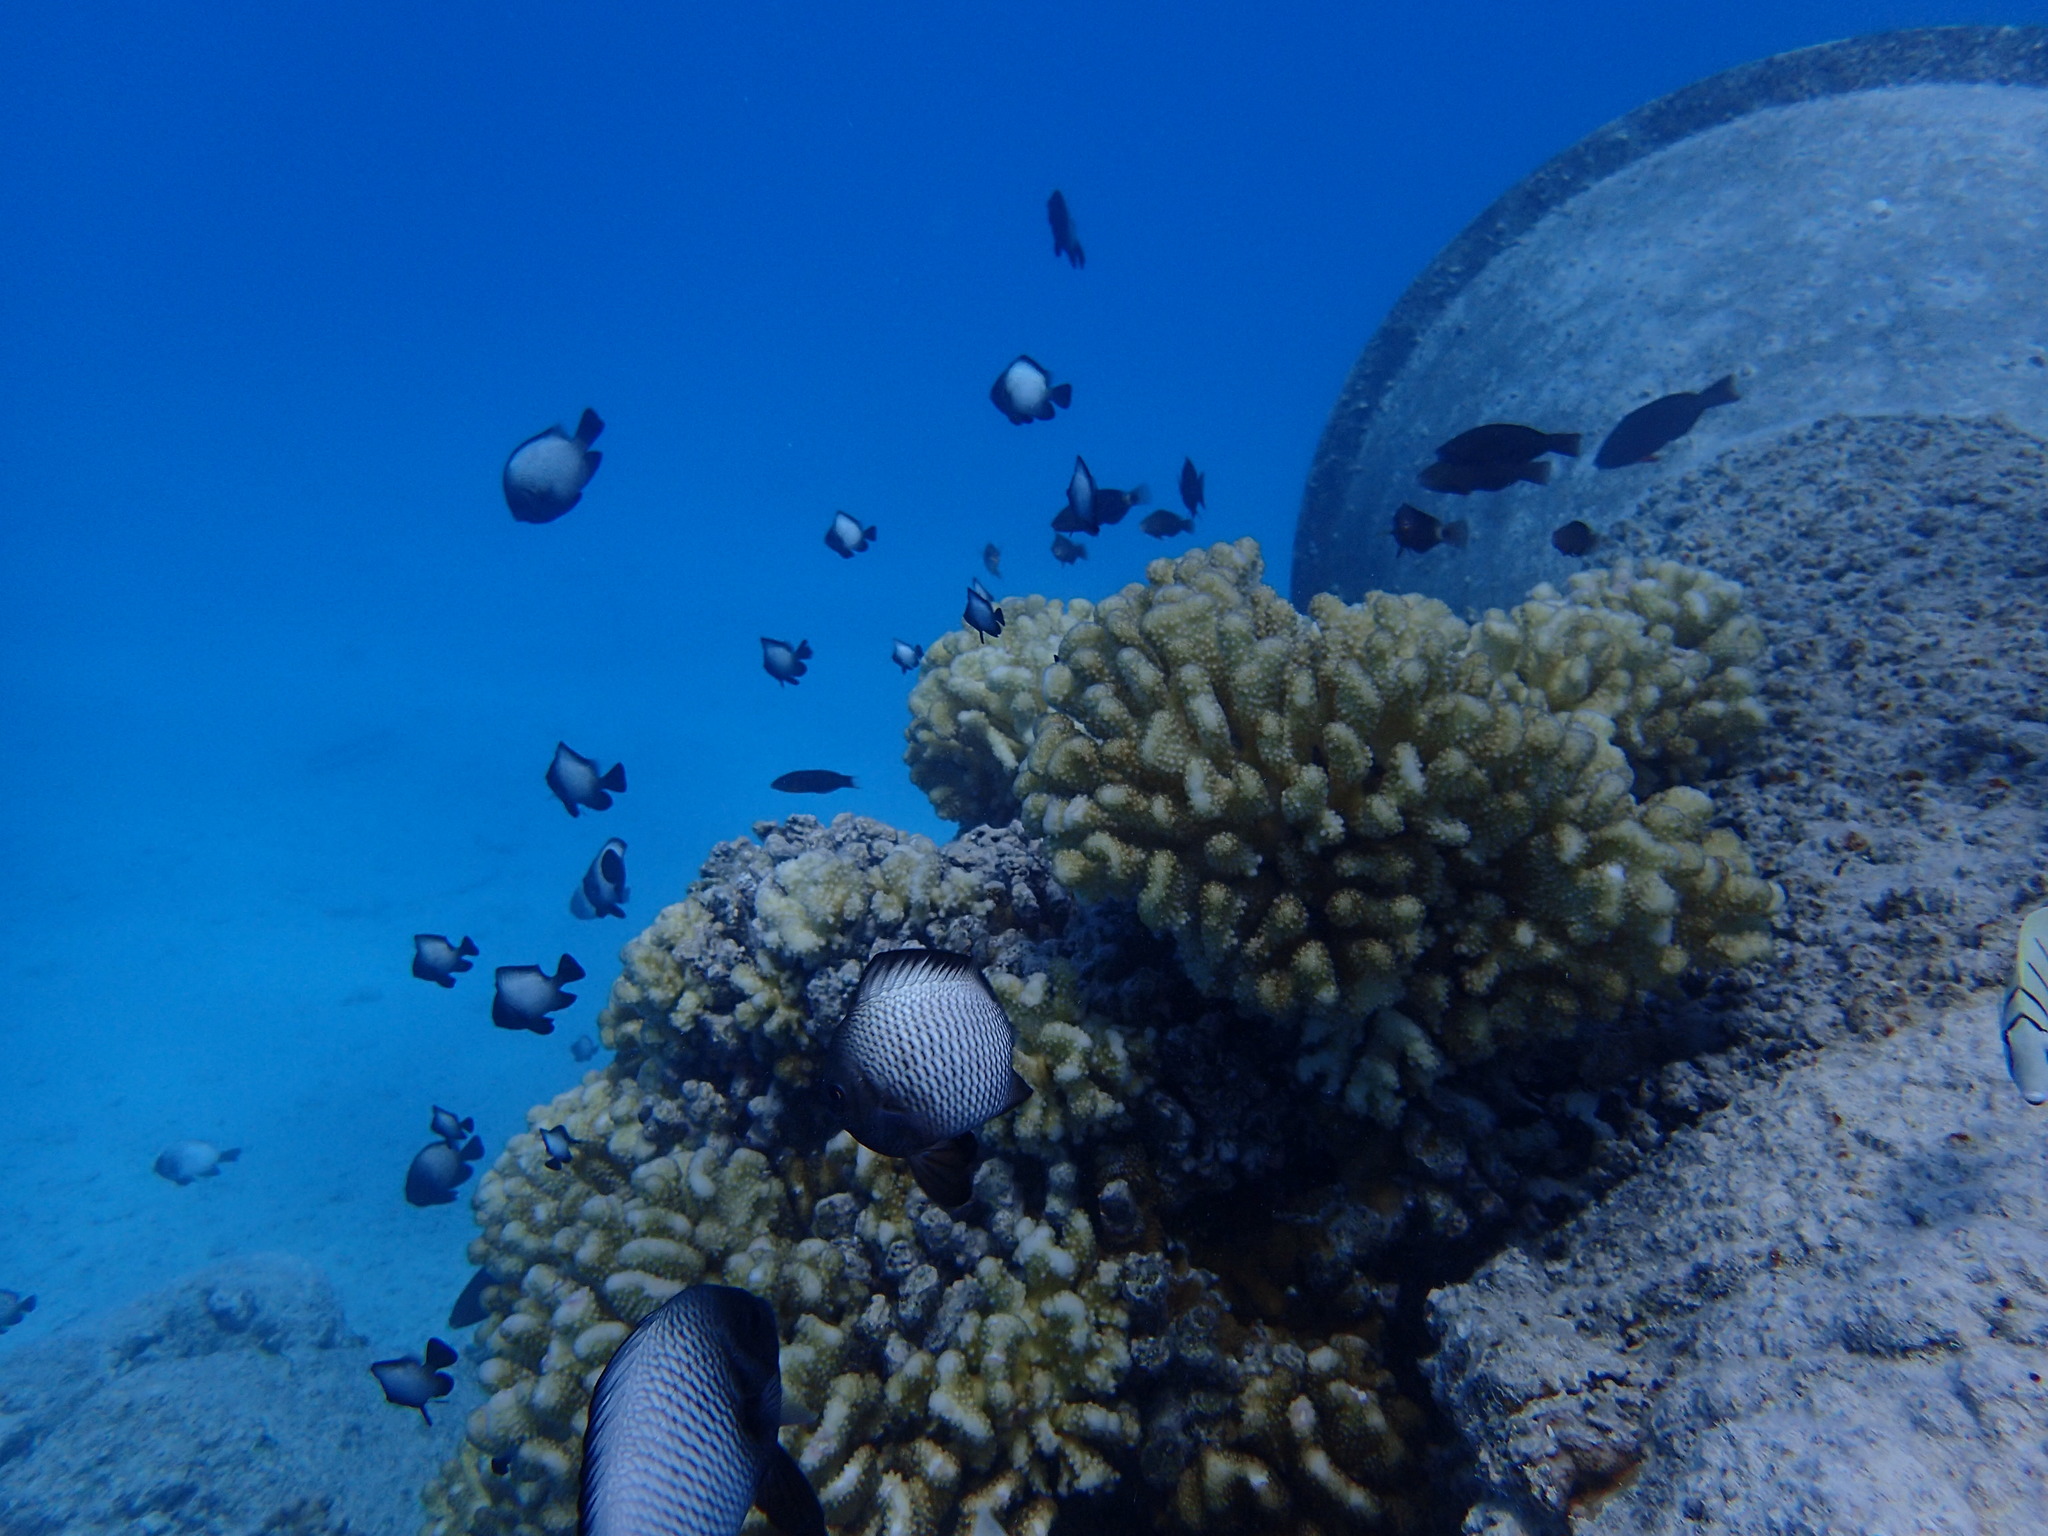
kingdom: Animalia
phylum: Chordata
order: Perciformes
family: Pomacentridae
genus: Dascyllus
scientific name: Dascyllus albisella
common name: Hawaiian dascyllus
